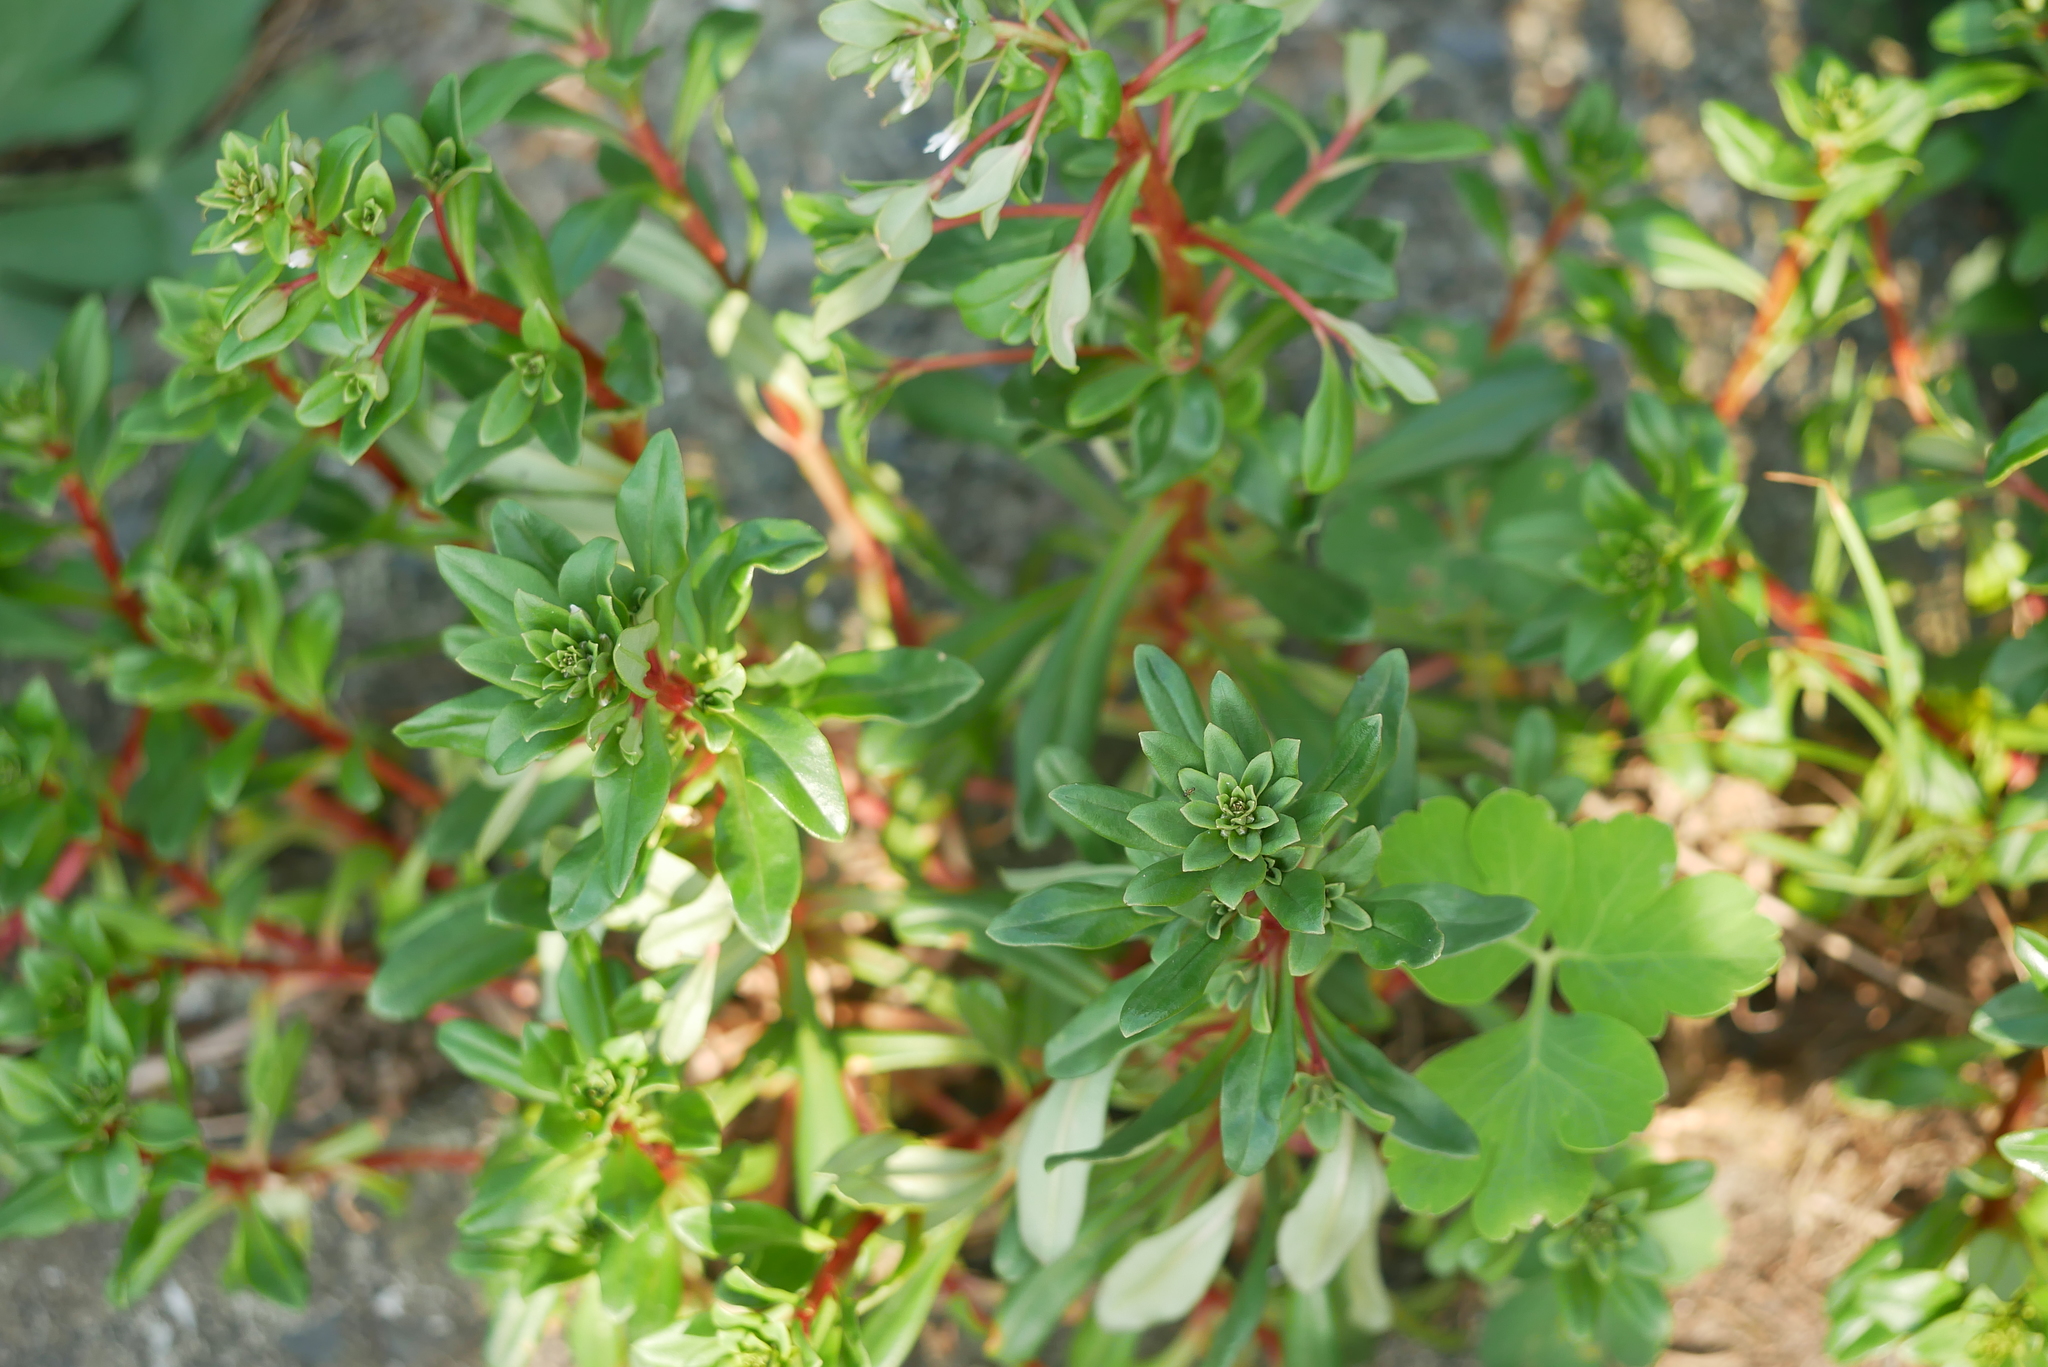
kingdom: Plantae
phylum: Tracheophyta
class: Magnoliopsida
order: Ericales
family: Primulaceae
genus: Lysimachia
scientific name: Lysimachia mauritiana
